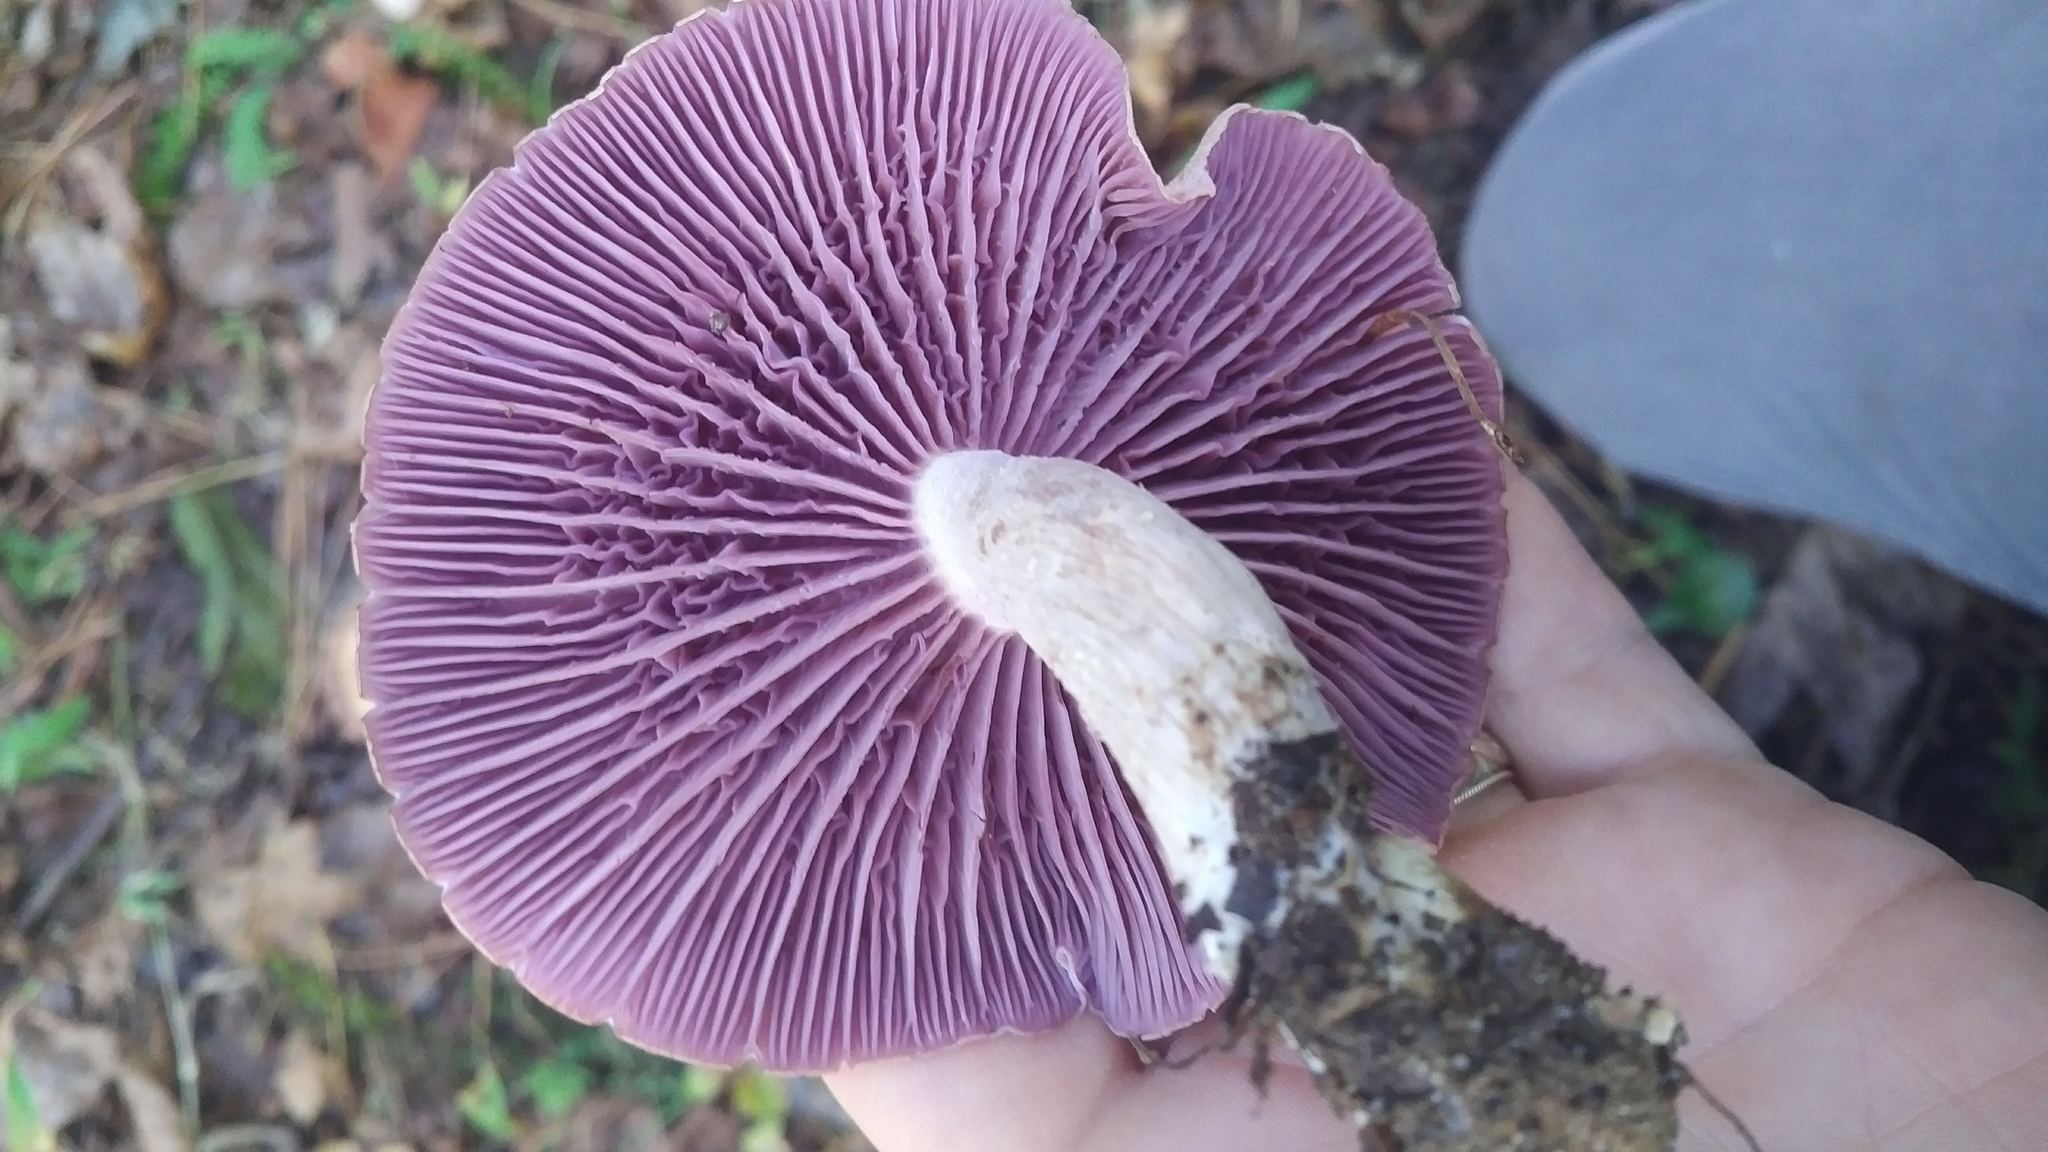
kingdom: Fungi
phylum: Basidiomycota
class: Agaricomycetes
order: Agaricales
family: Hydnangiaceae
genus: Laccaria
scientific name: Laccaria ochropurpurea
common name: Purple laccaria
